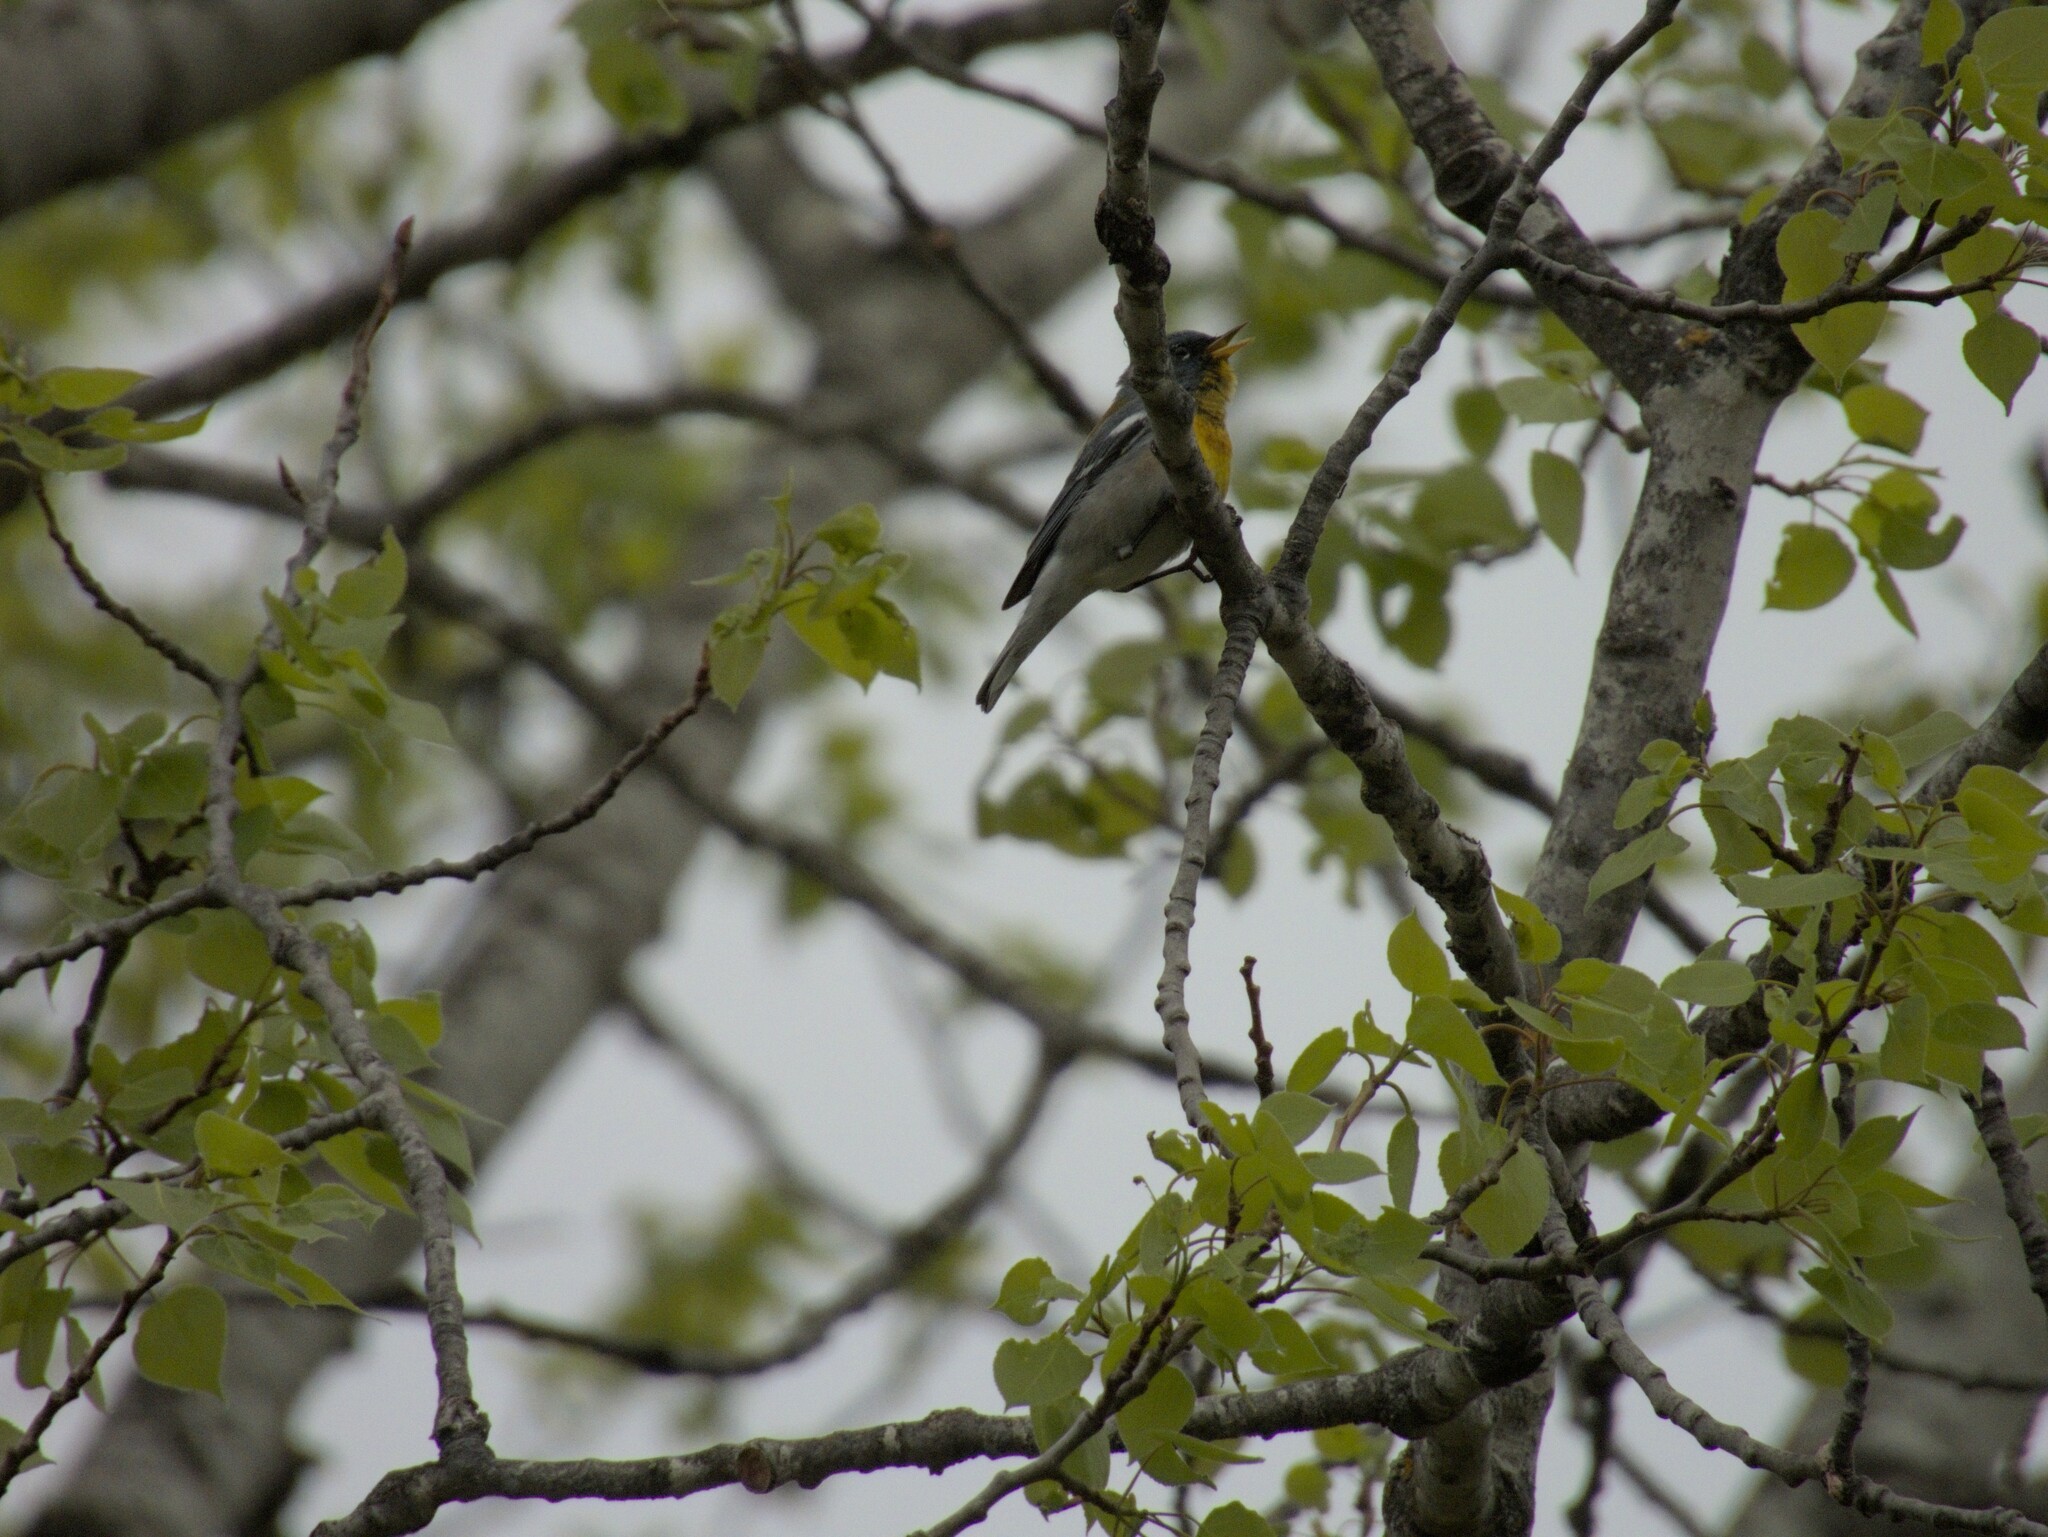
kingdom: Animalia
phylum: Chordata
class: Aves
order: Passeriformes
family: Parulidae
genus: Setophaga
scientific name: Setophaga americana
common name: Northern parula
